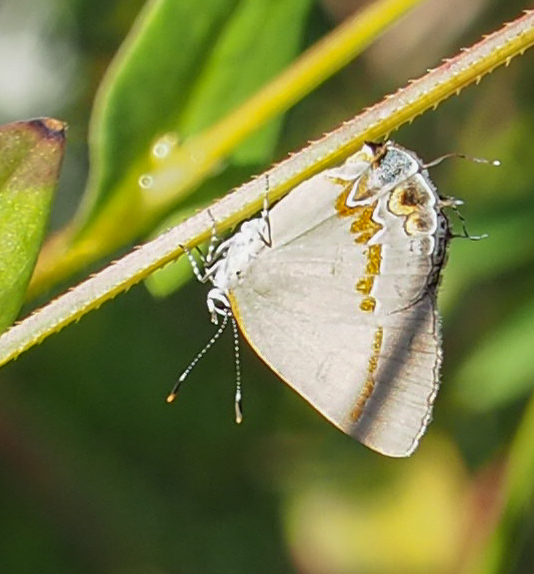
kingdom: Animalia
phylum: Arthropoda
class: Insecta
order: Lepidoptera
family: Lycaenidae
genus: Calycopis
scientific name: Calycopis cecrops
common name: Red-banded hairstreak
